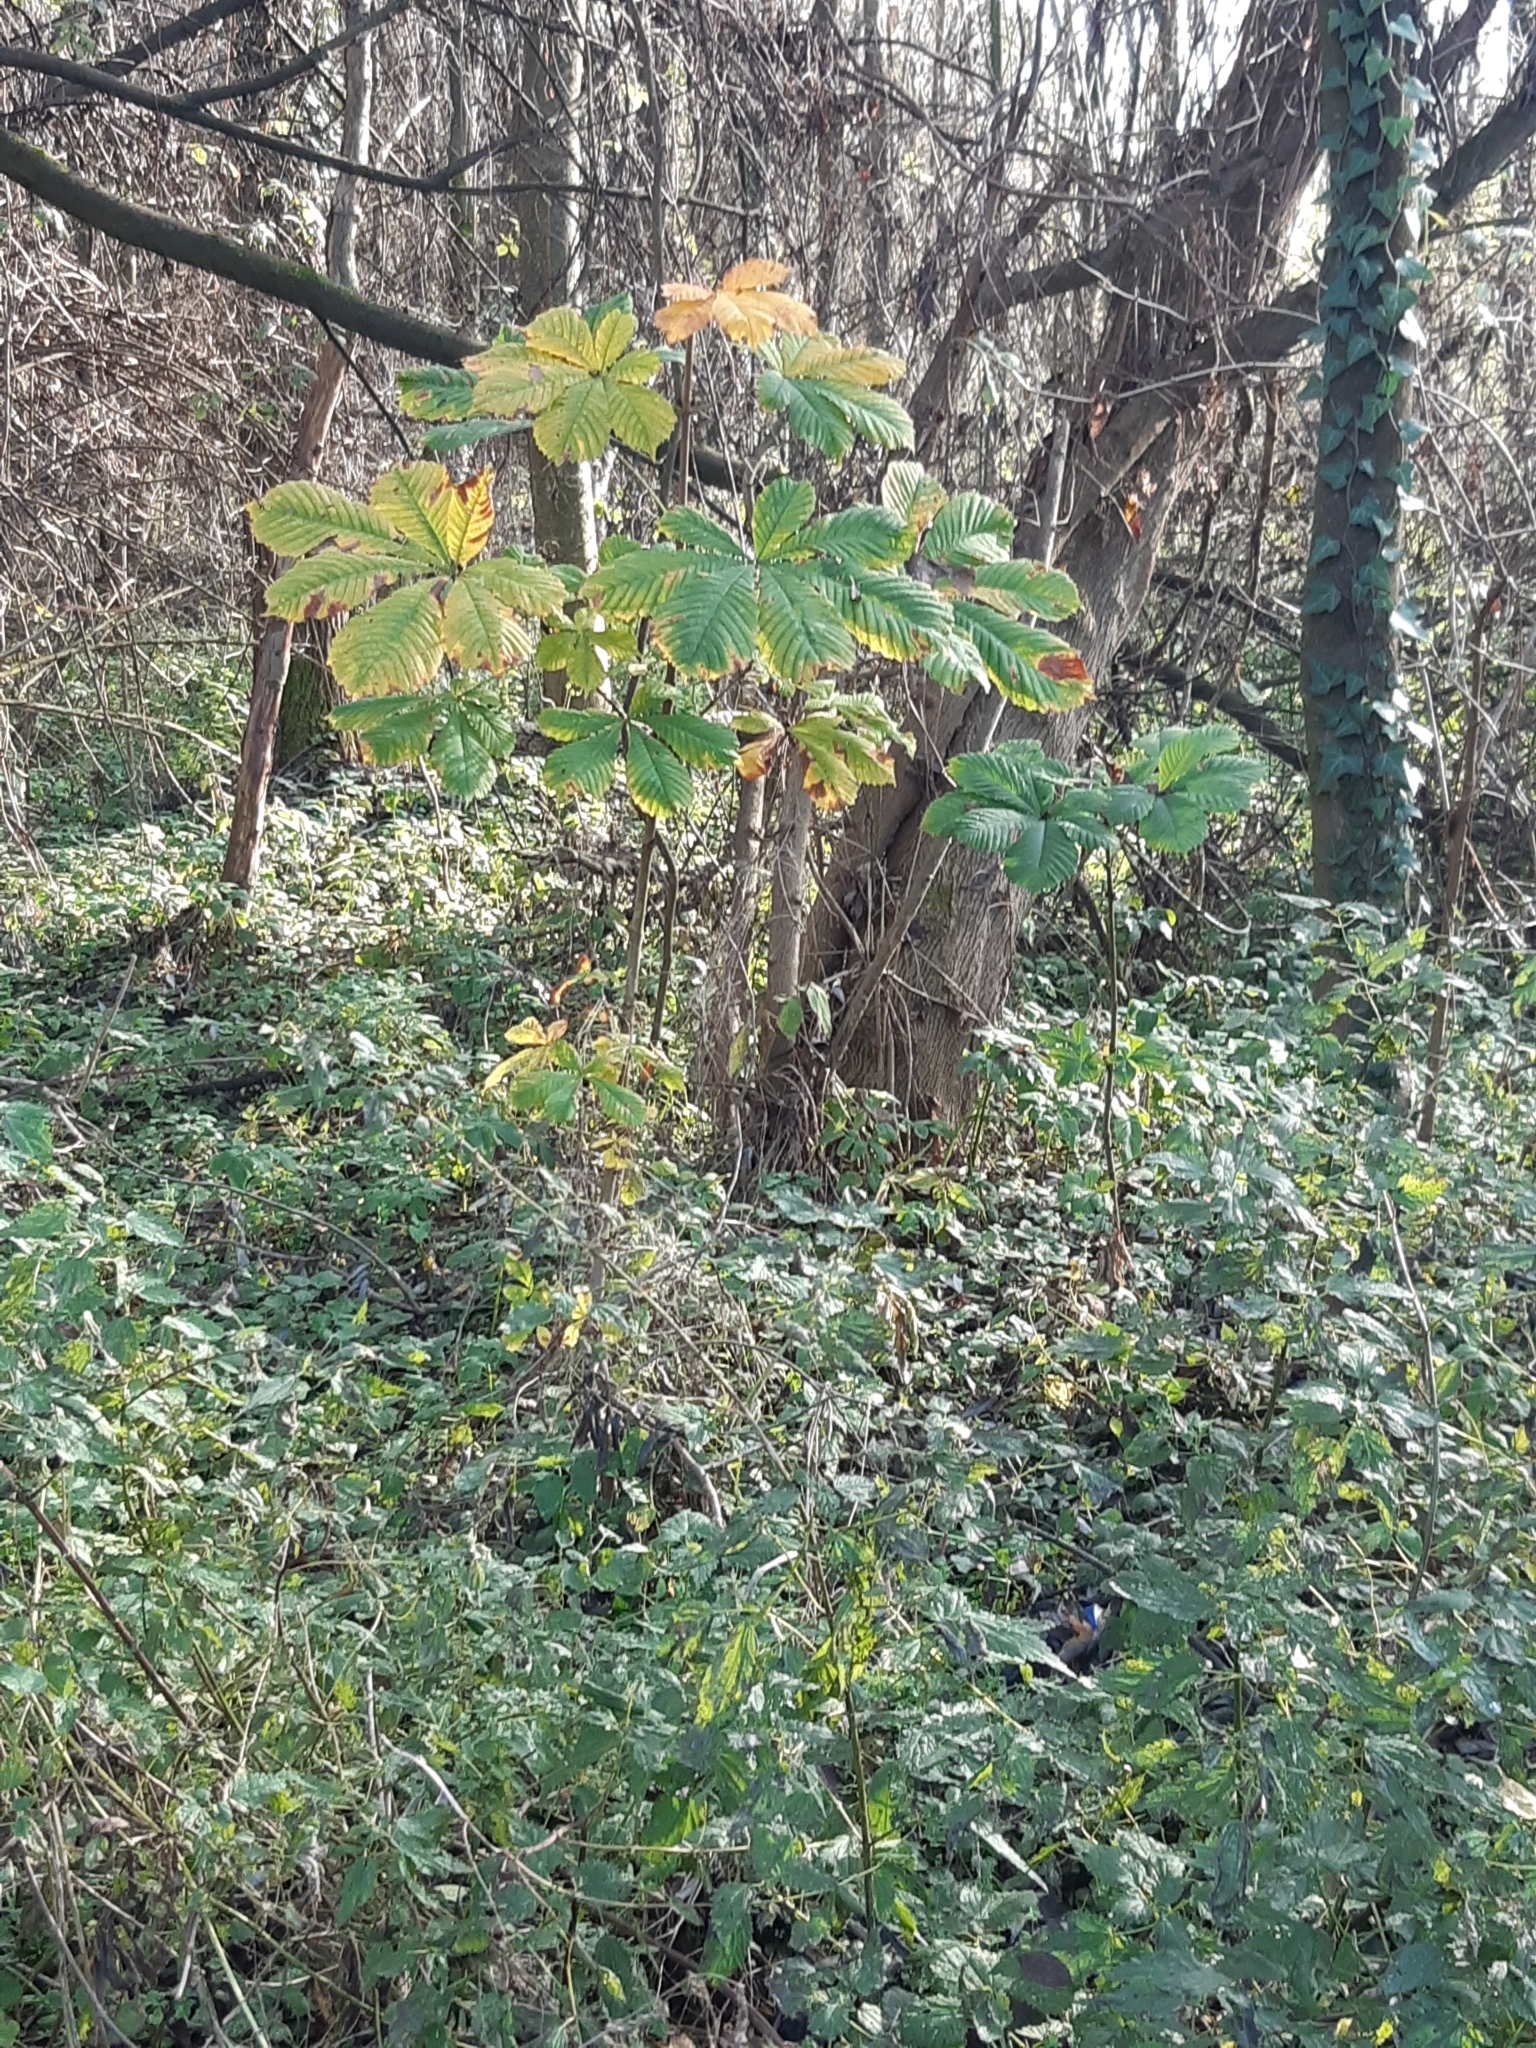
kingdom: Plantae
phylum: Tracheophyta
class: Magnoliopsida
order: Sapindales
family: Sapindaceae
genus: Aesculus
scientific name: Aesculus hippocastanum
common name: Horse-chestnut
